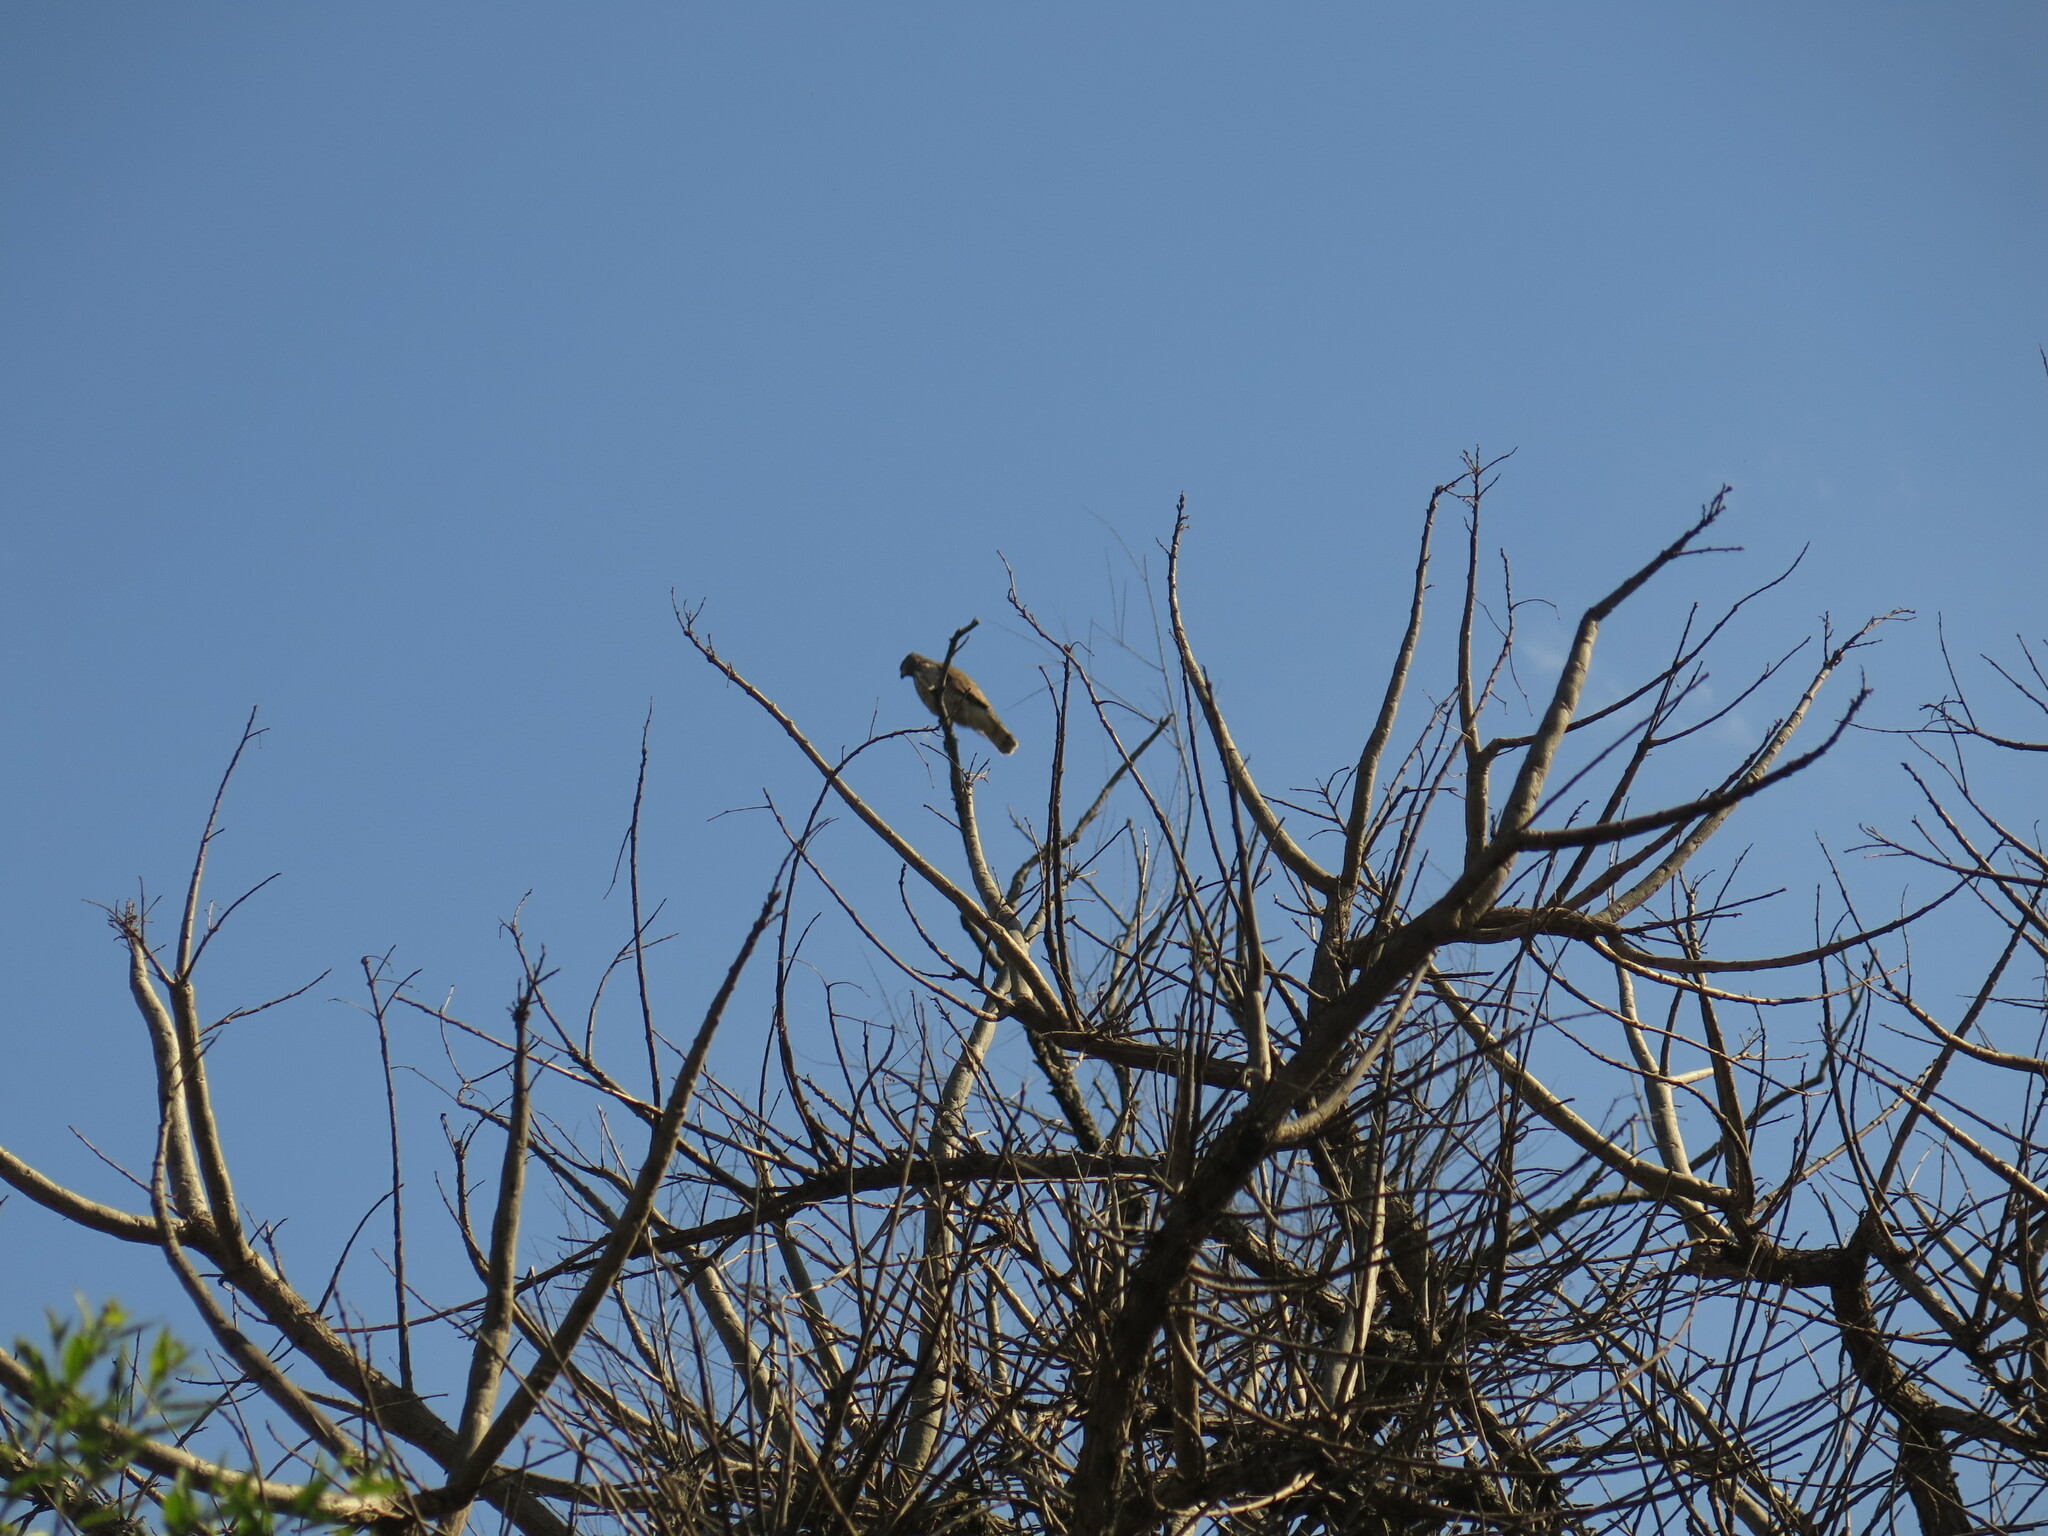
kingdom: Animalia
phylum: Chordata
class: Aves
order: Accipitriformes
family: Accipitridae
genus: Rupornis
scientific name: Rupornis magnirostris
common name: Roadside hawk
